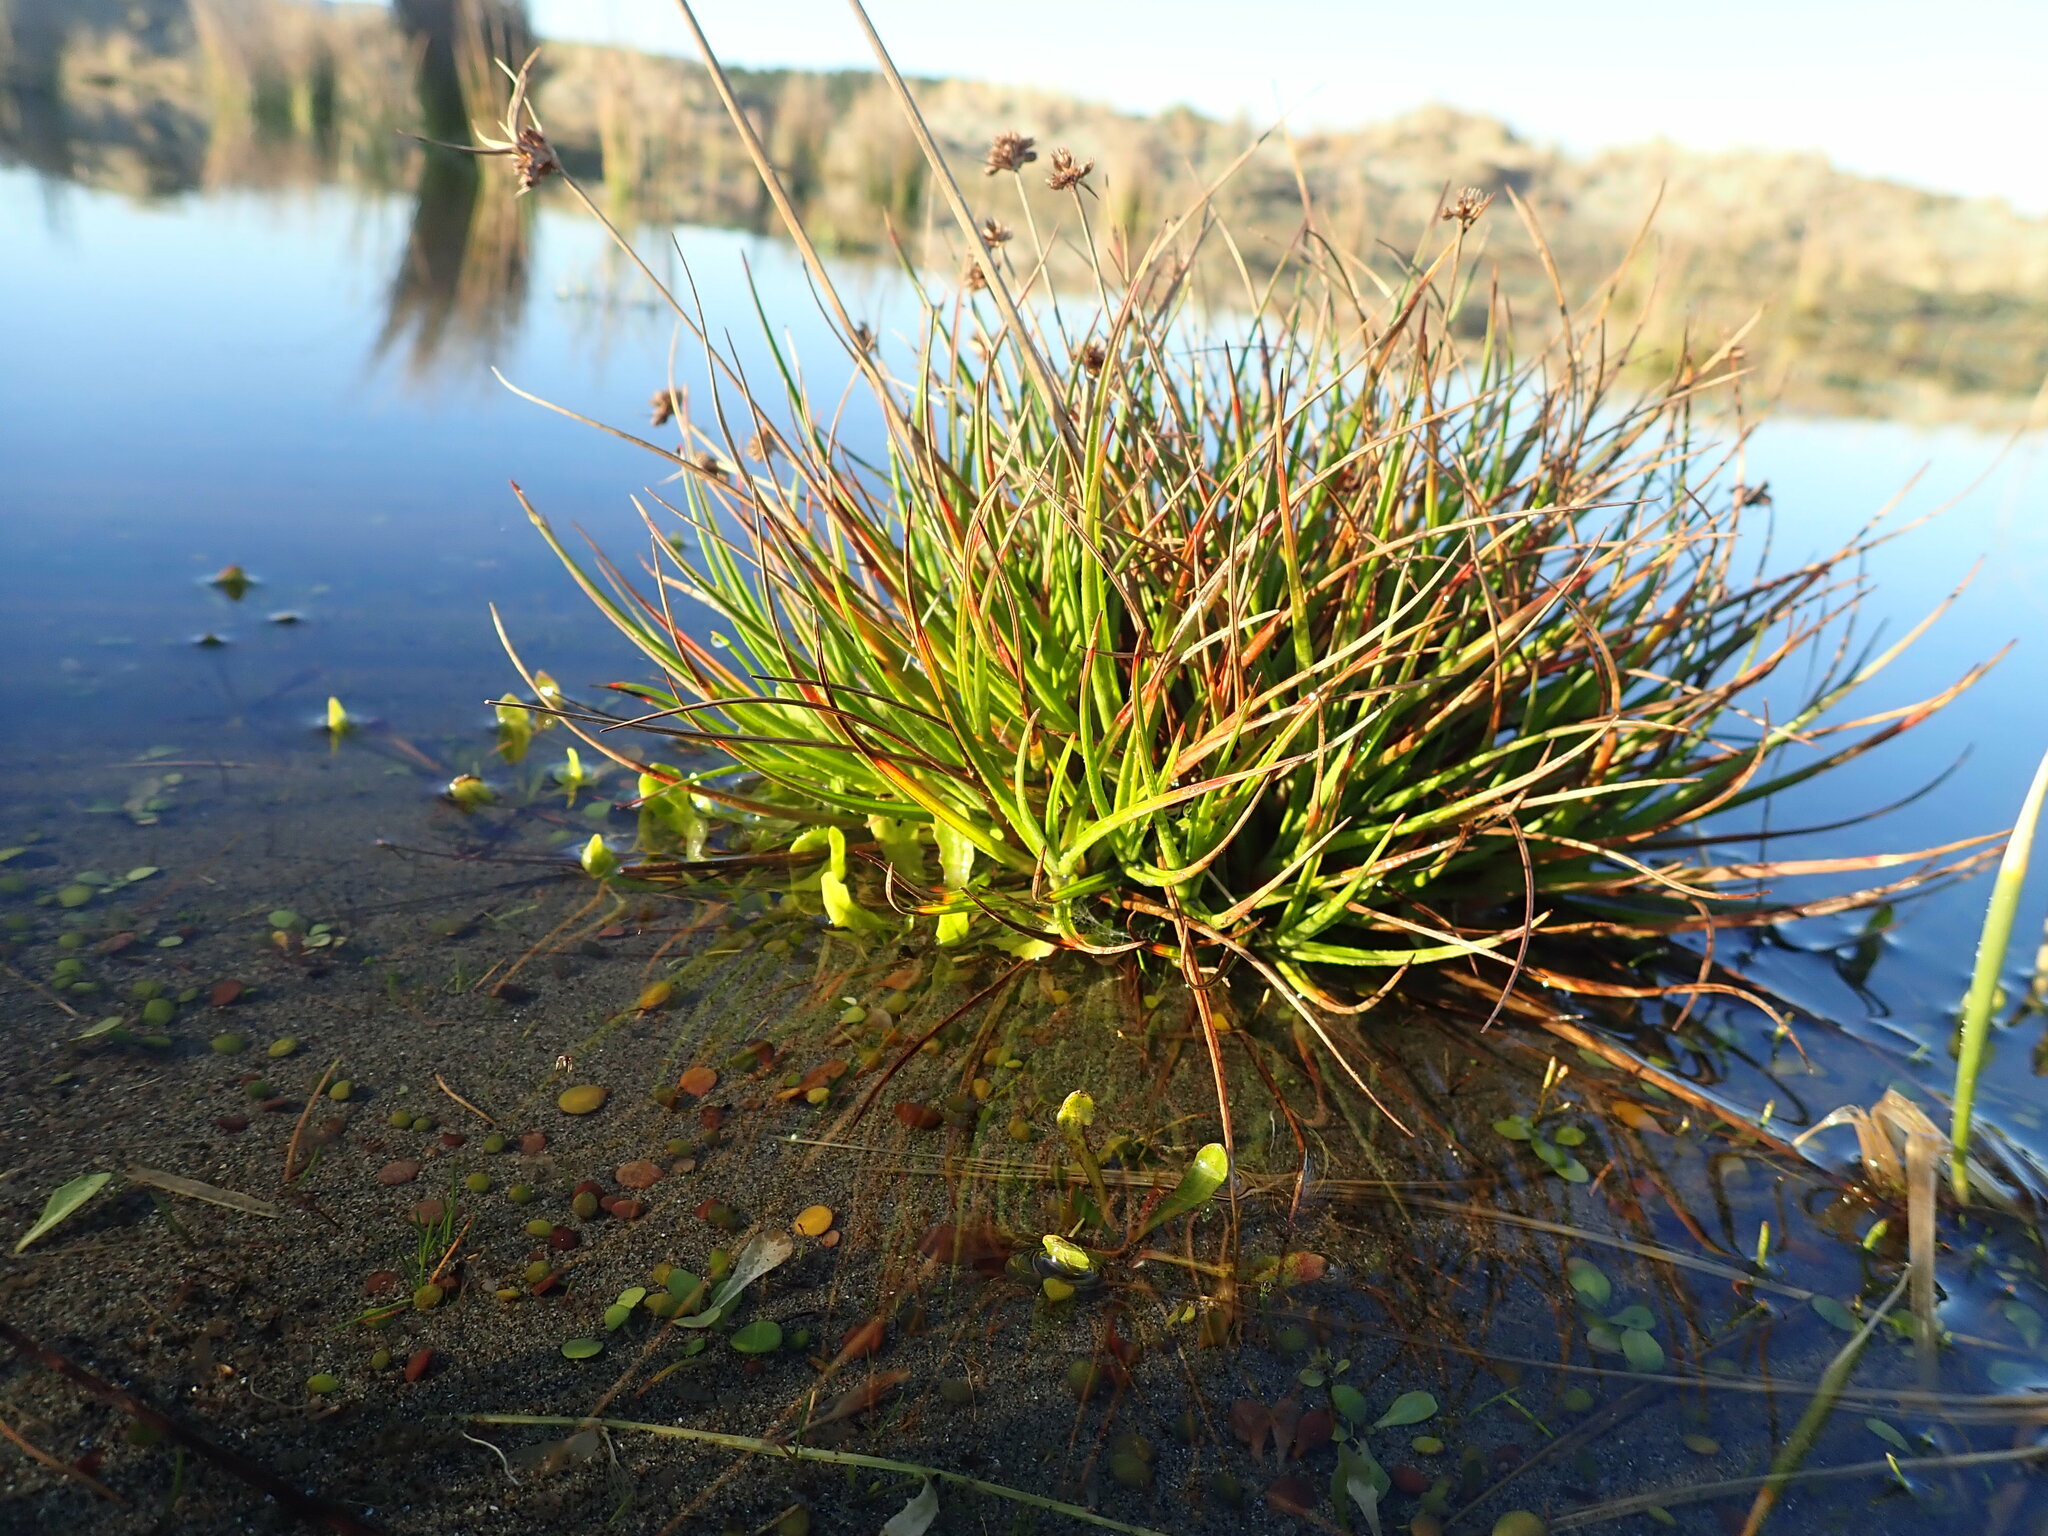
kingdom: Plantae
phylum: Tracheophyta
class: Liliopsida
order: Poales
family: Juncaceae
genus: Juncus
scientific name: Juncus caespiticius
